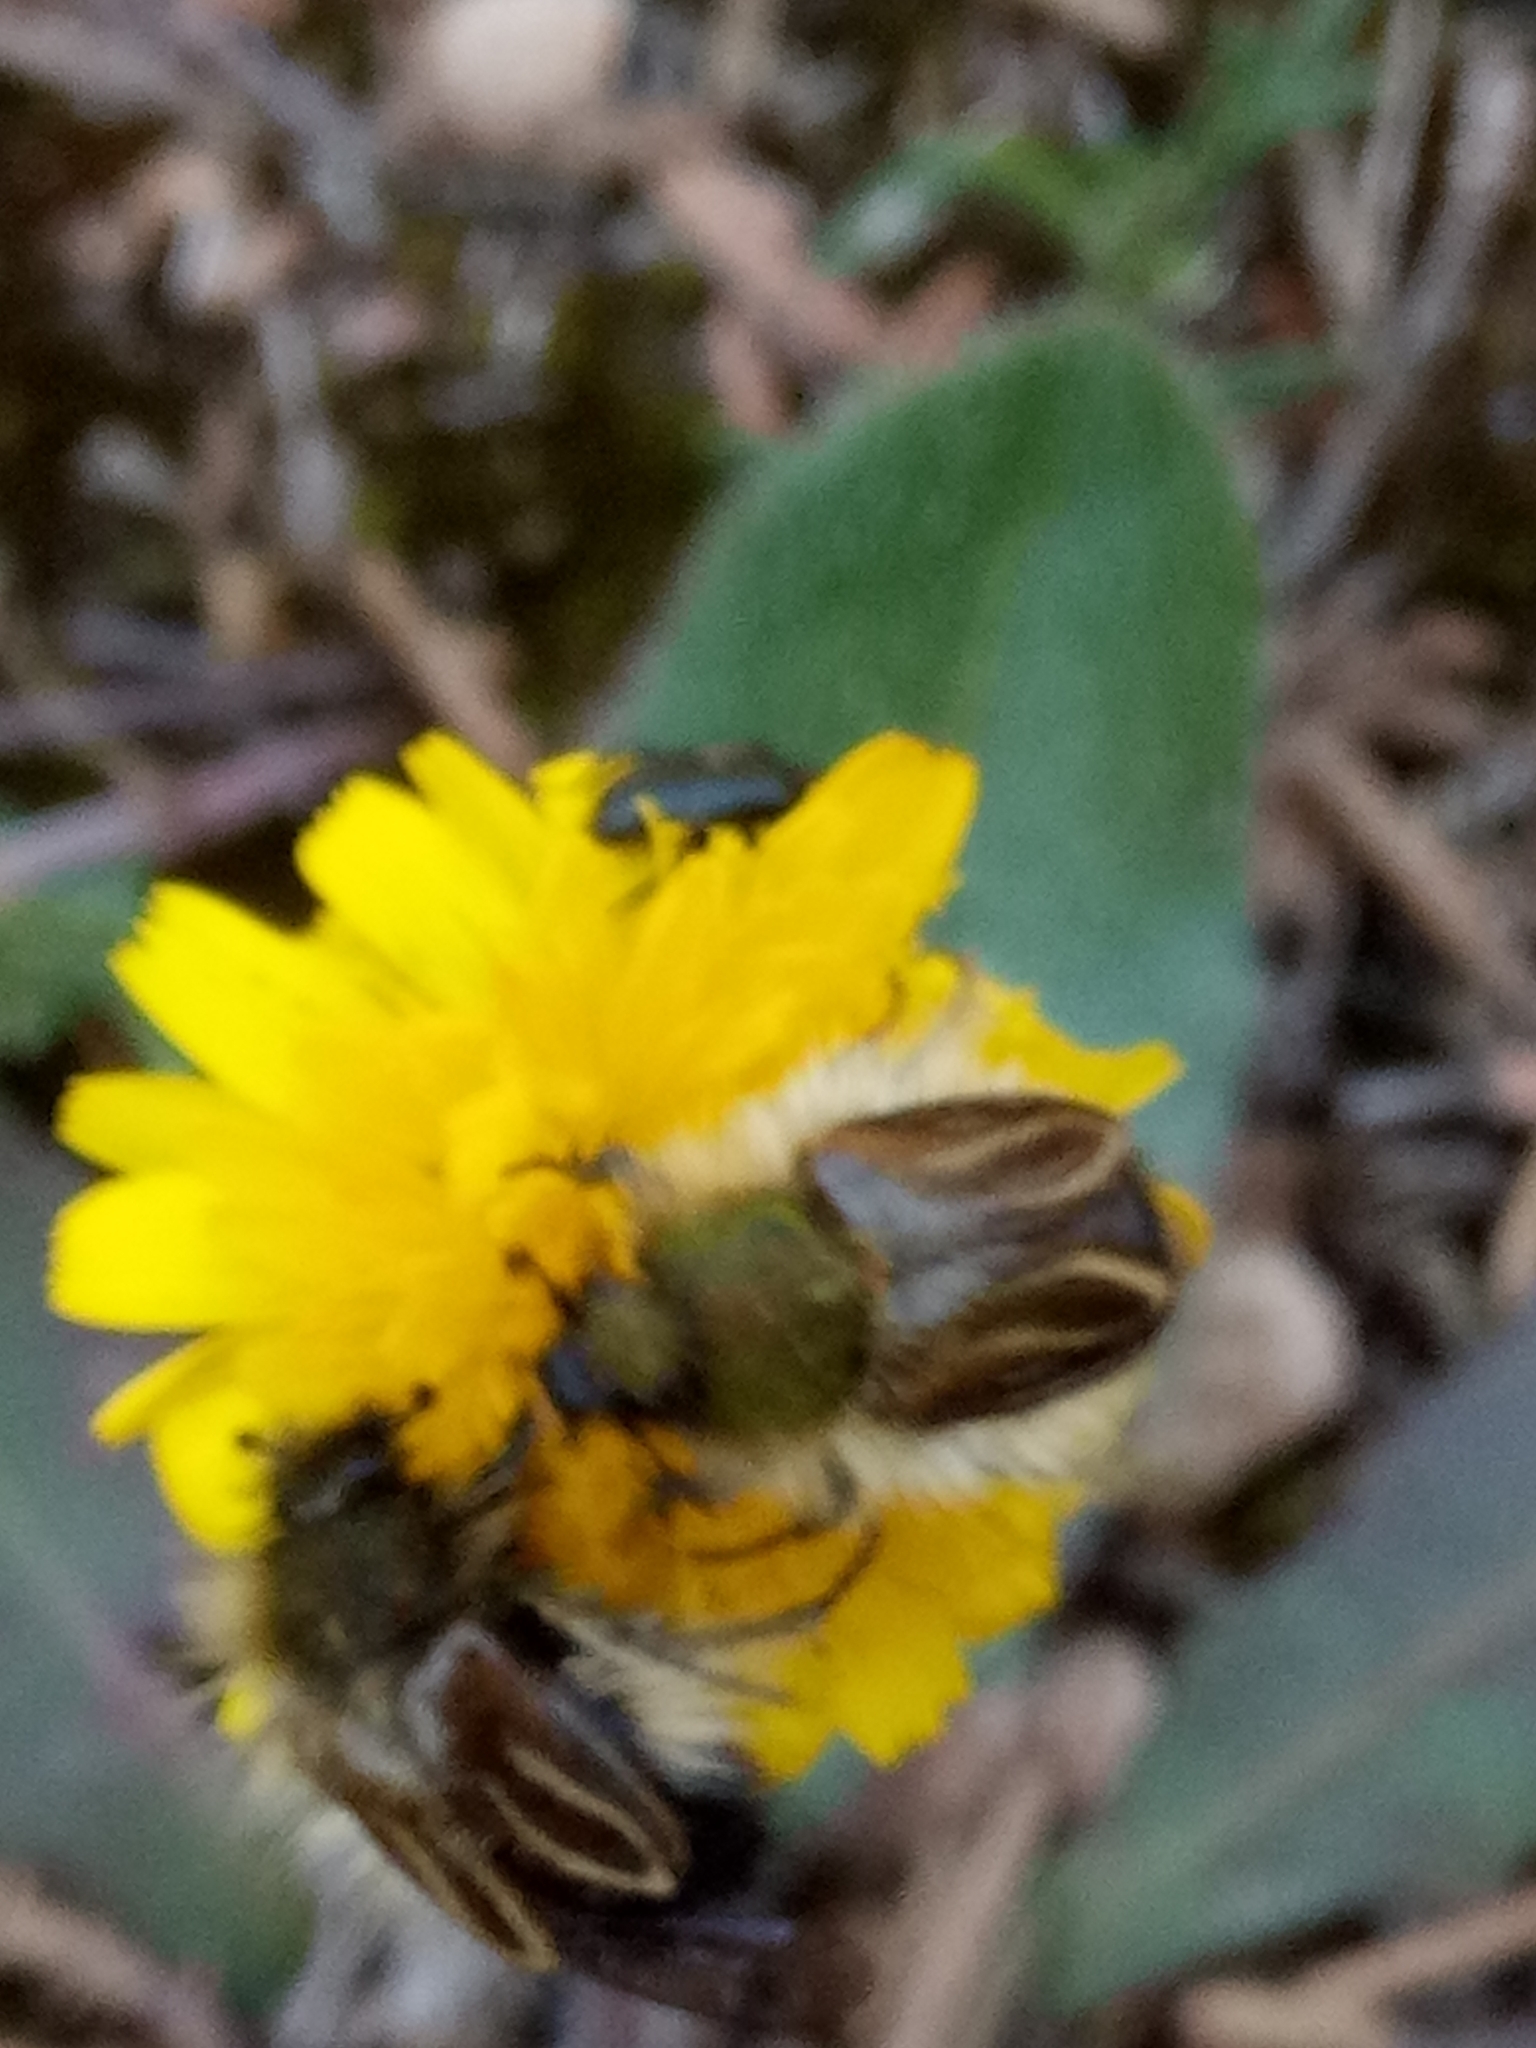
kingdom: Animalia
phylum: Arthropoda
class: Insecta
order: Coleoptera
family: Glaphyridae
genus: Eulasia
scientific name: Eulasia bombylius
